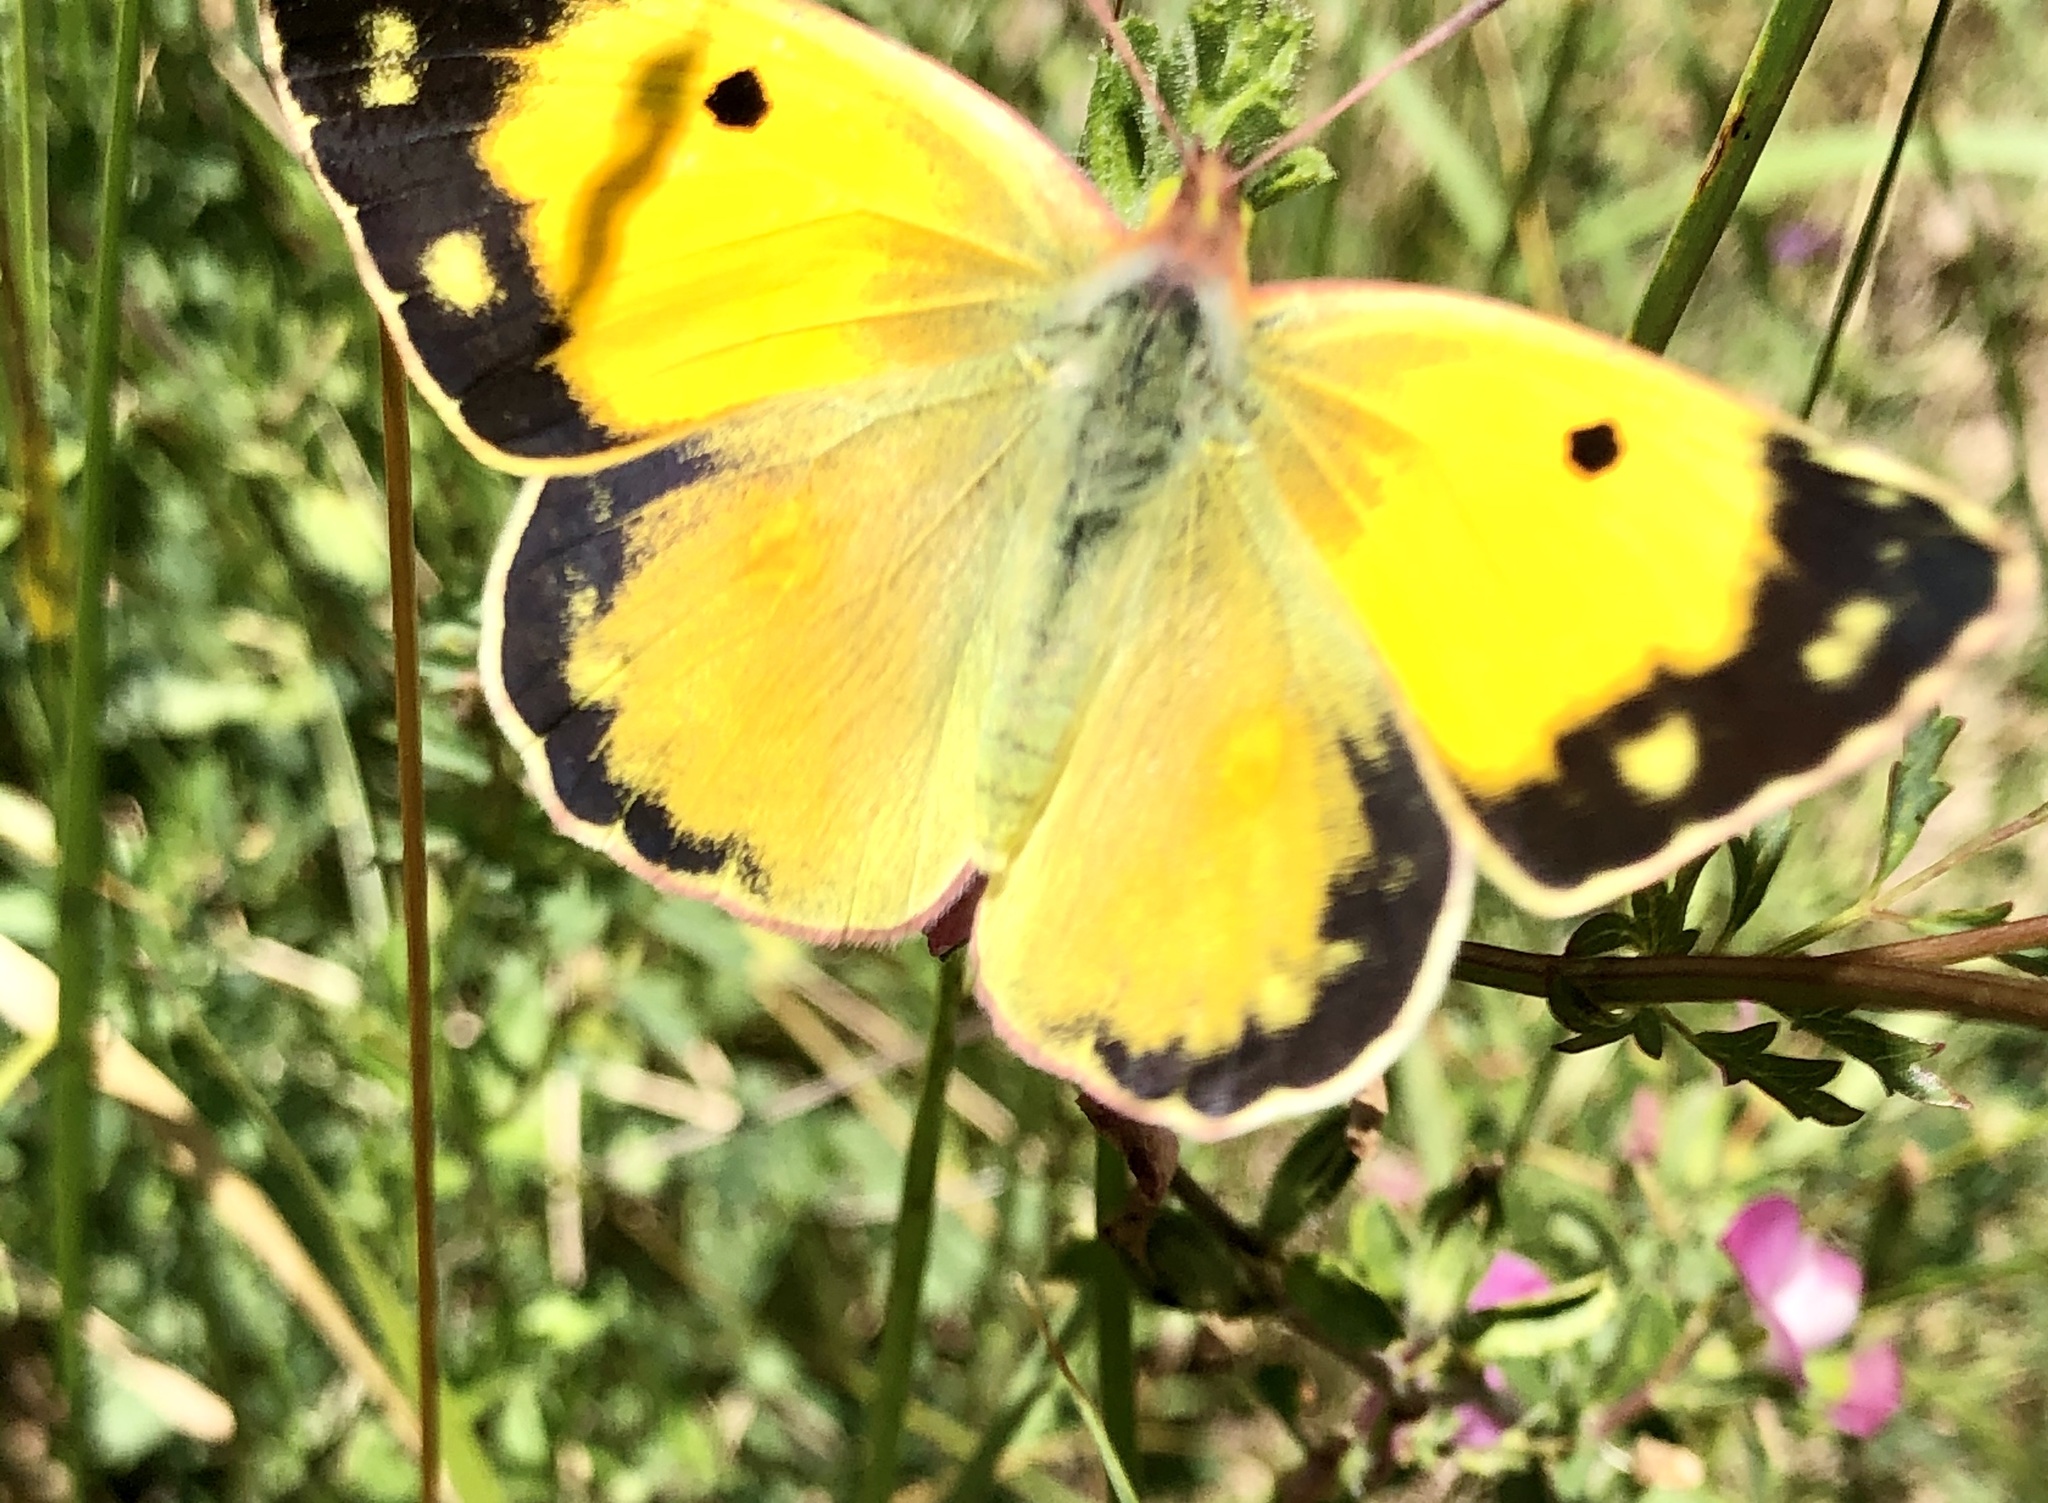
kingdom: Animalia
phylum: Arthropoda
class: Insecta
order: Lepidoptera
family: Pieridae
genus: Colias
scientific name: Colias croceus
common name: Clouded yellow
